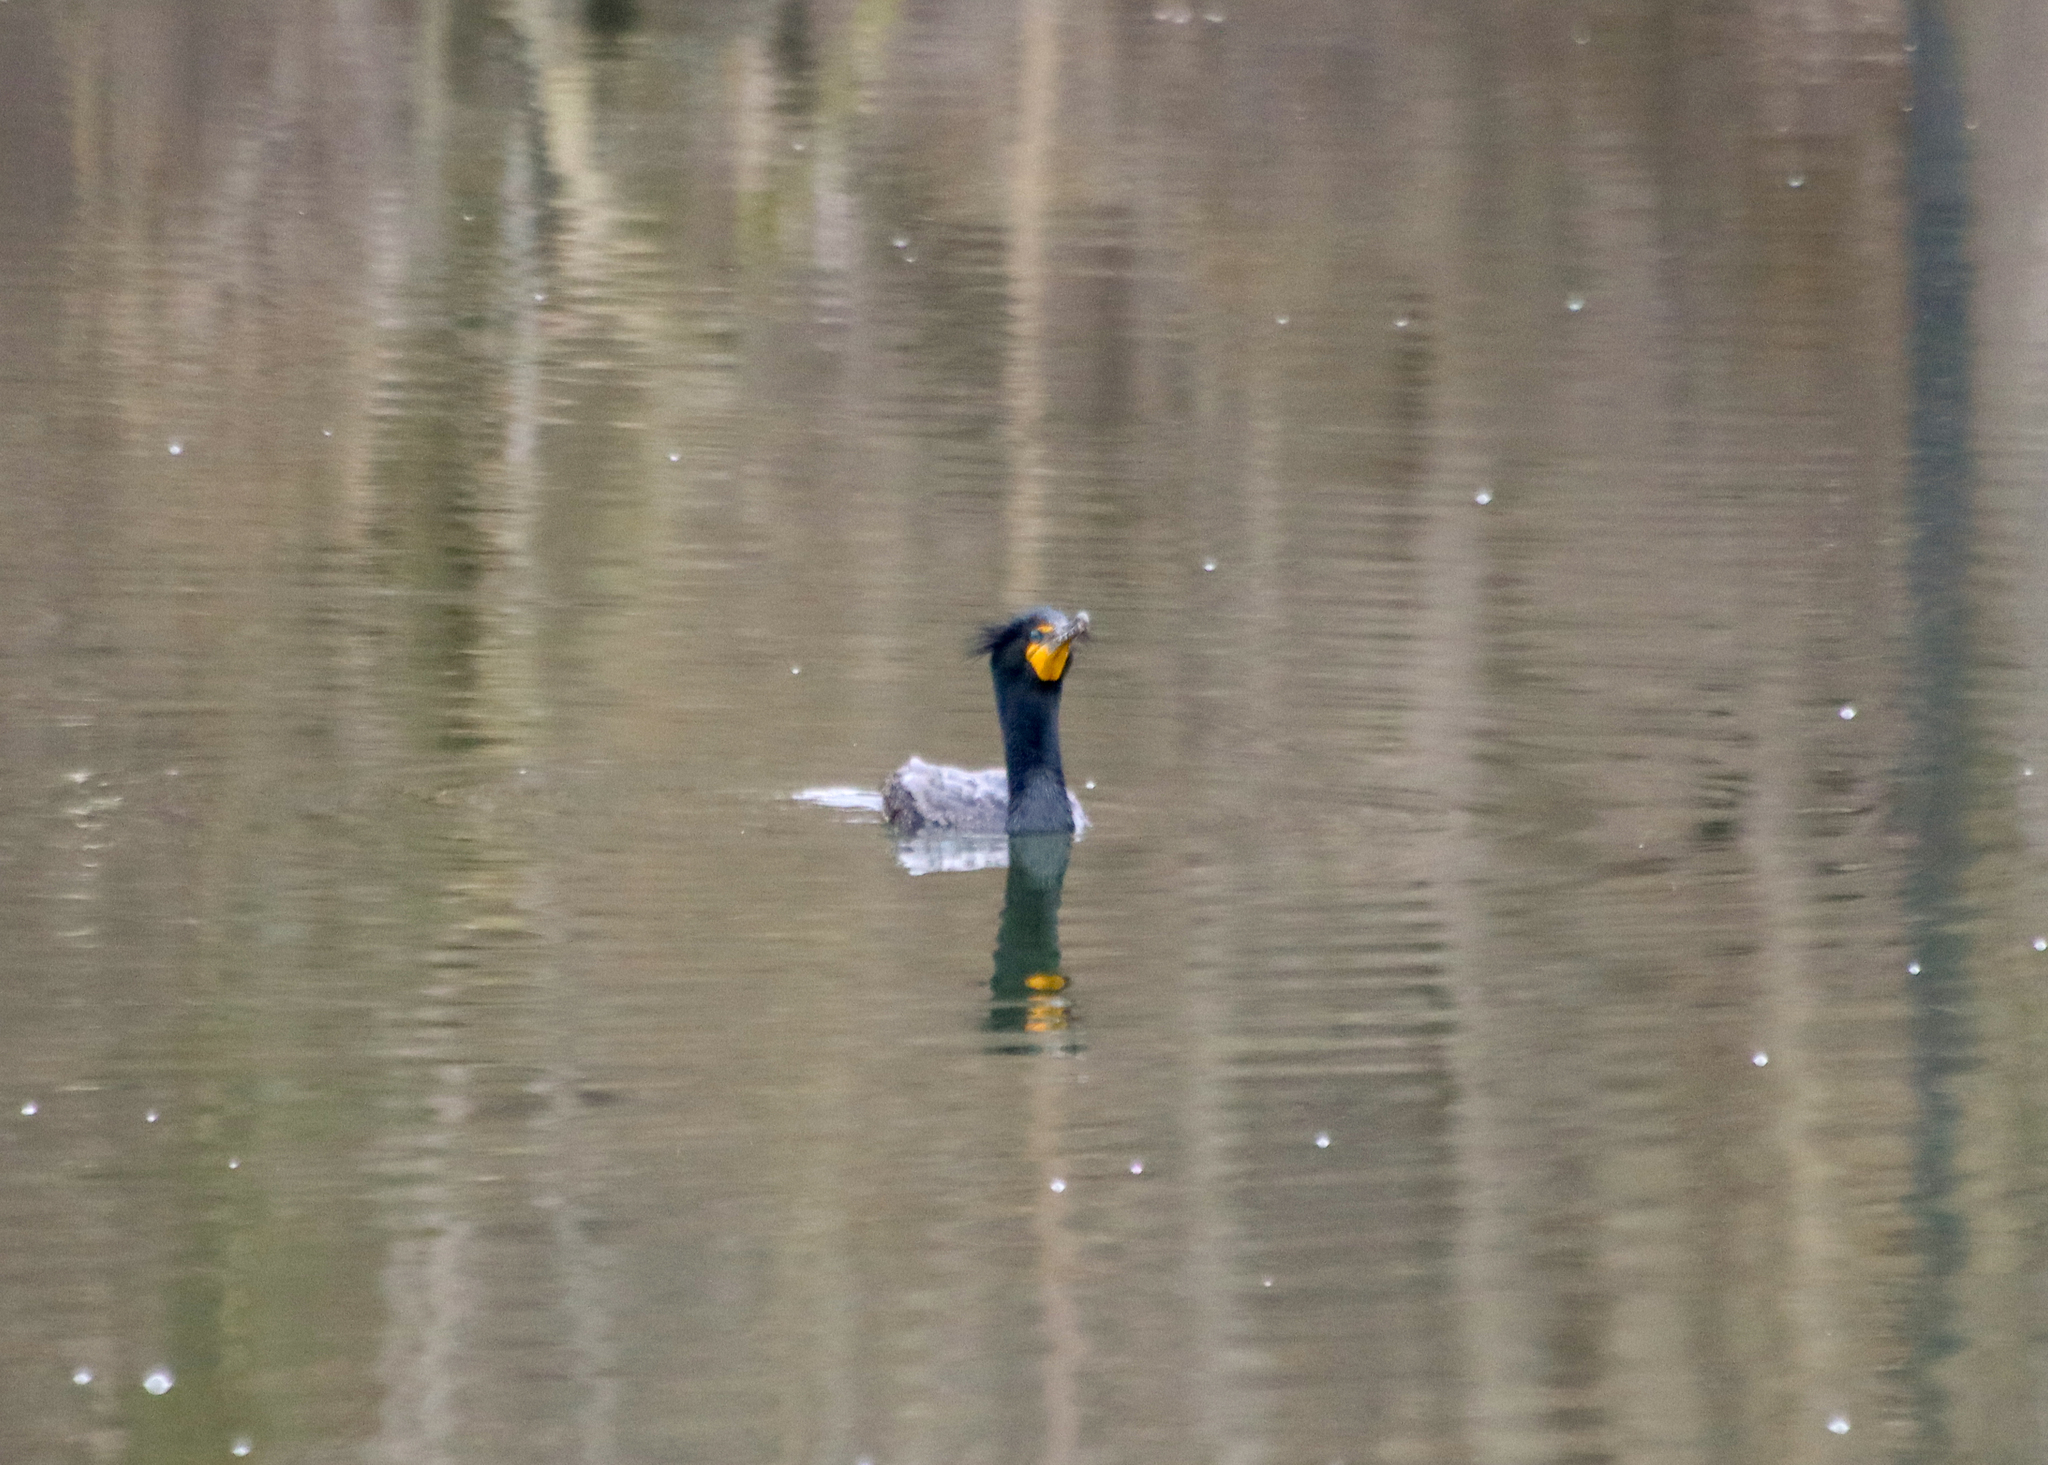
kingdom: Animalia
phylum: Chordata
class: Aves
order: Suliformes
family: Phalacrocoracidae
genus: Phalacrocorax
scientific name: Phalacrocorax auritus
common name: Double-crested cormorant
